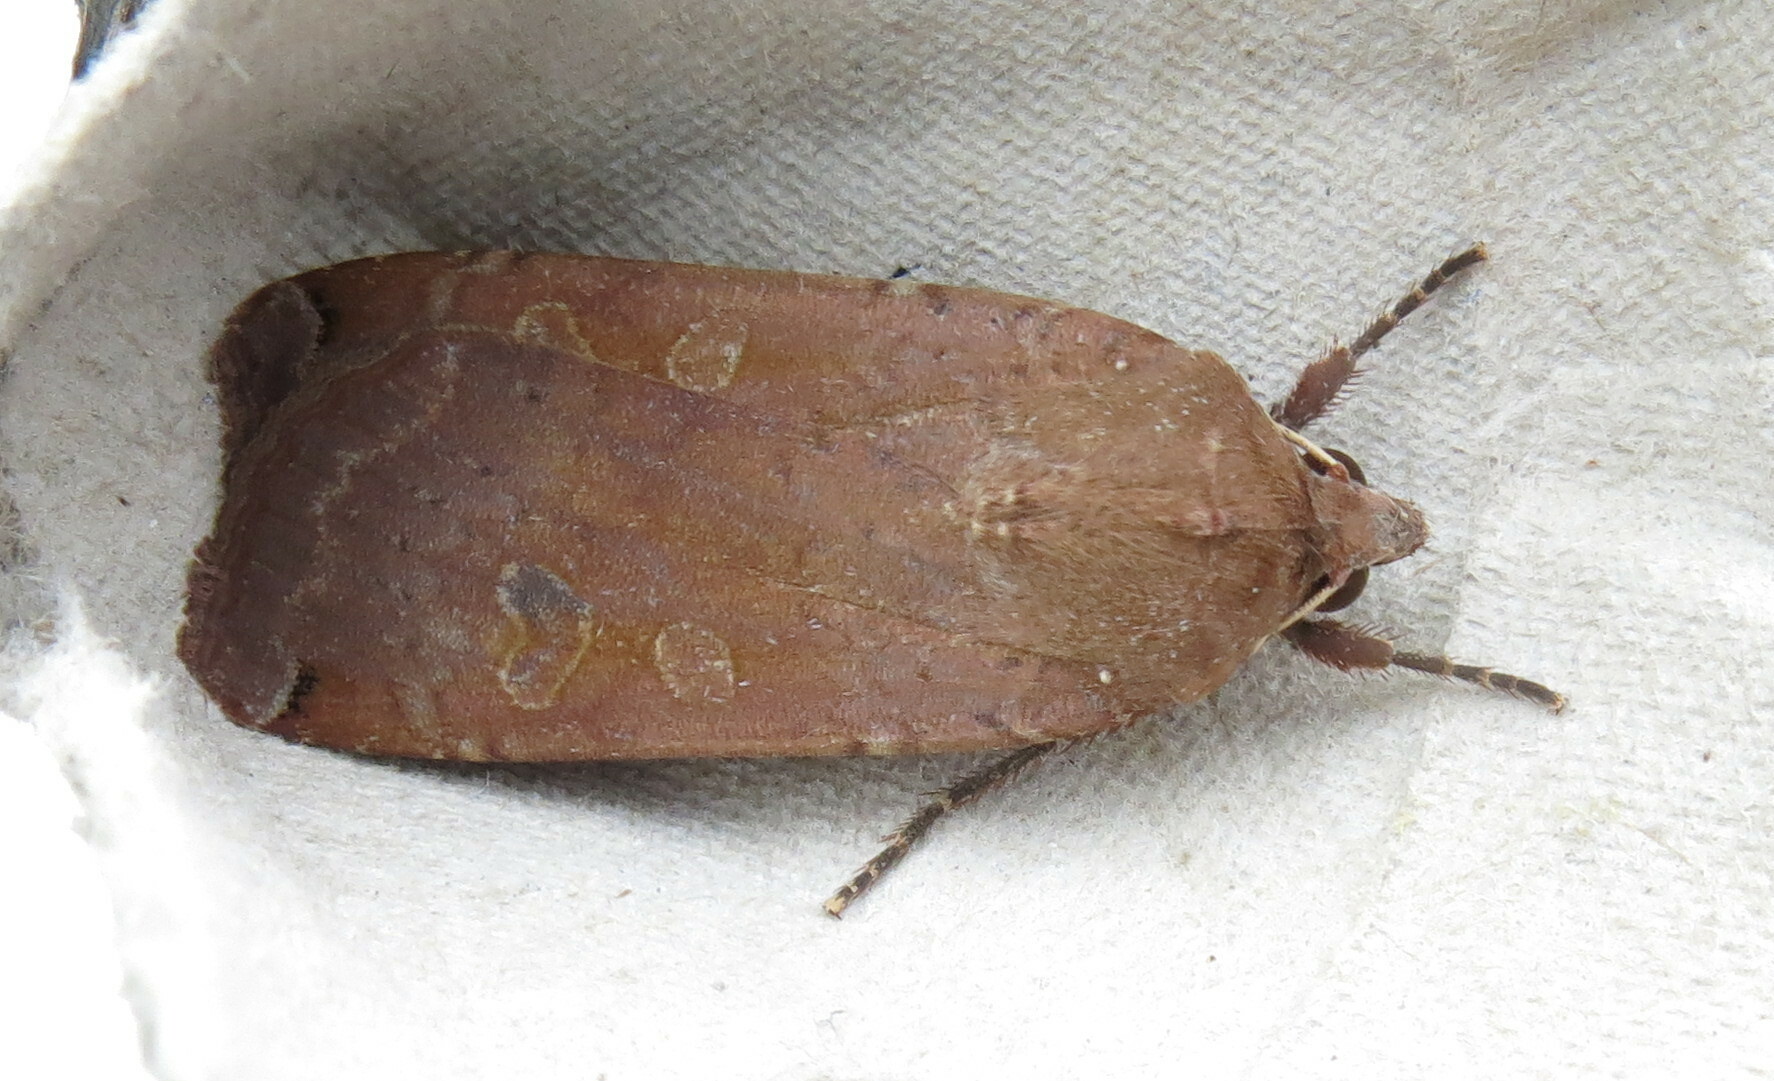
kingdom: Animalia
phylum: Arthropoda
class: Insecta
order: Lepidoptera
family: Noctuidae
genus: Noctua
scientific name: Noctua pronuba
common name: Large yellow underwing
